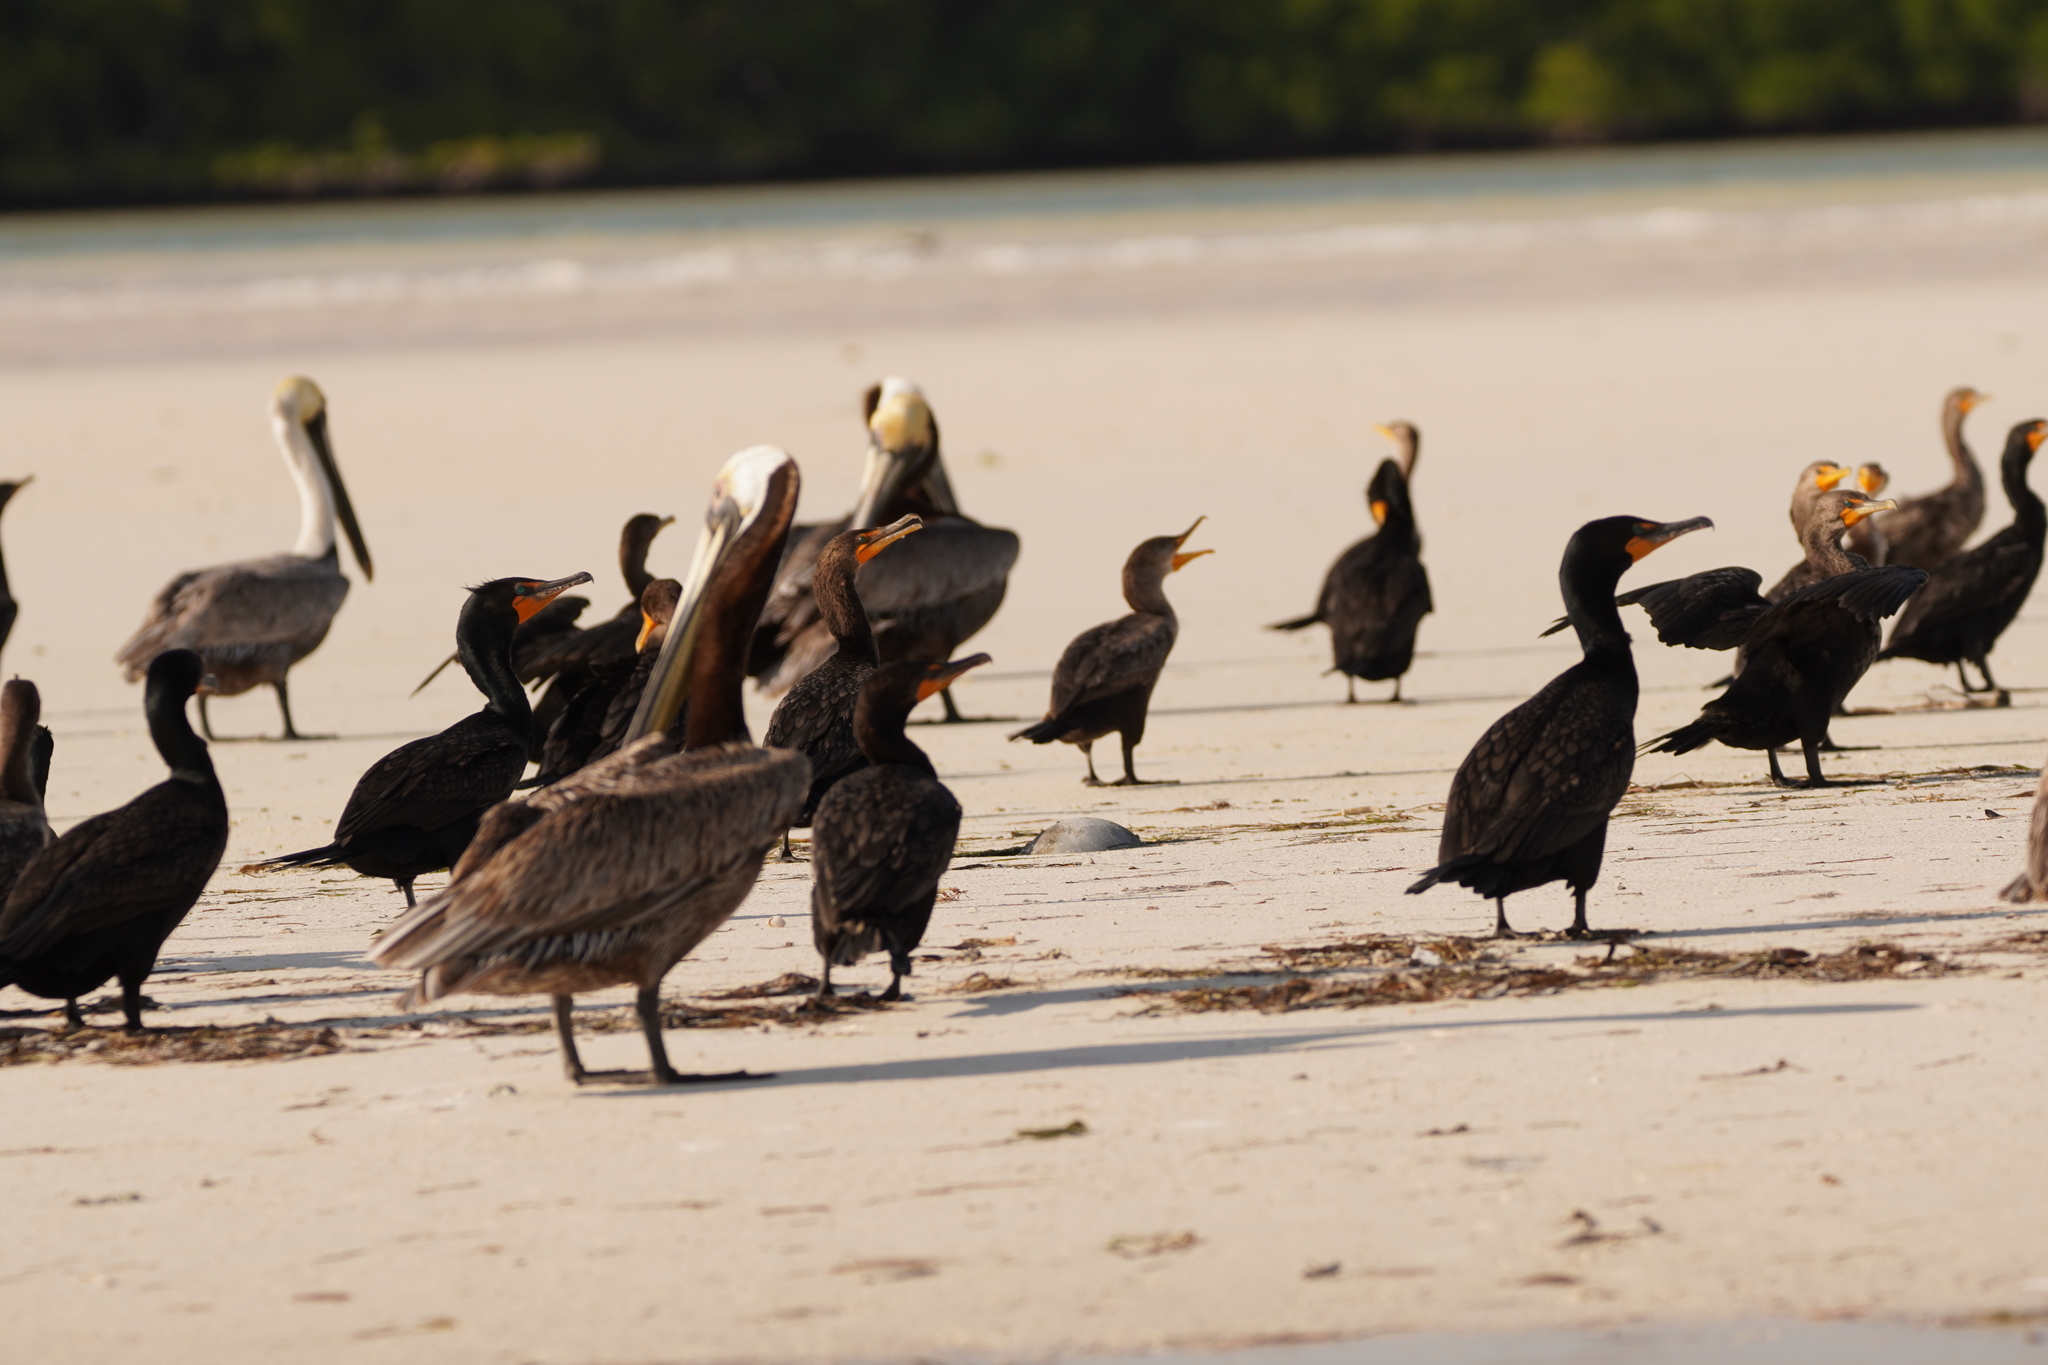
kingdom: Animalia
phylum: Chordata
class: Aves
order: Suliformes
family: Phalacrocoracidae
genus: Phalacrocorax
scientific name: Phalacrocorax auritus
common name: Double-crested cormorant
